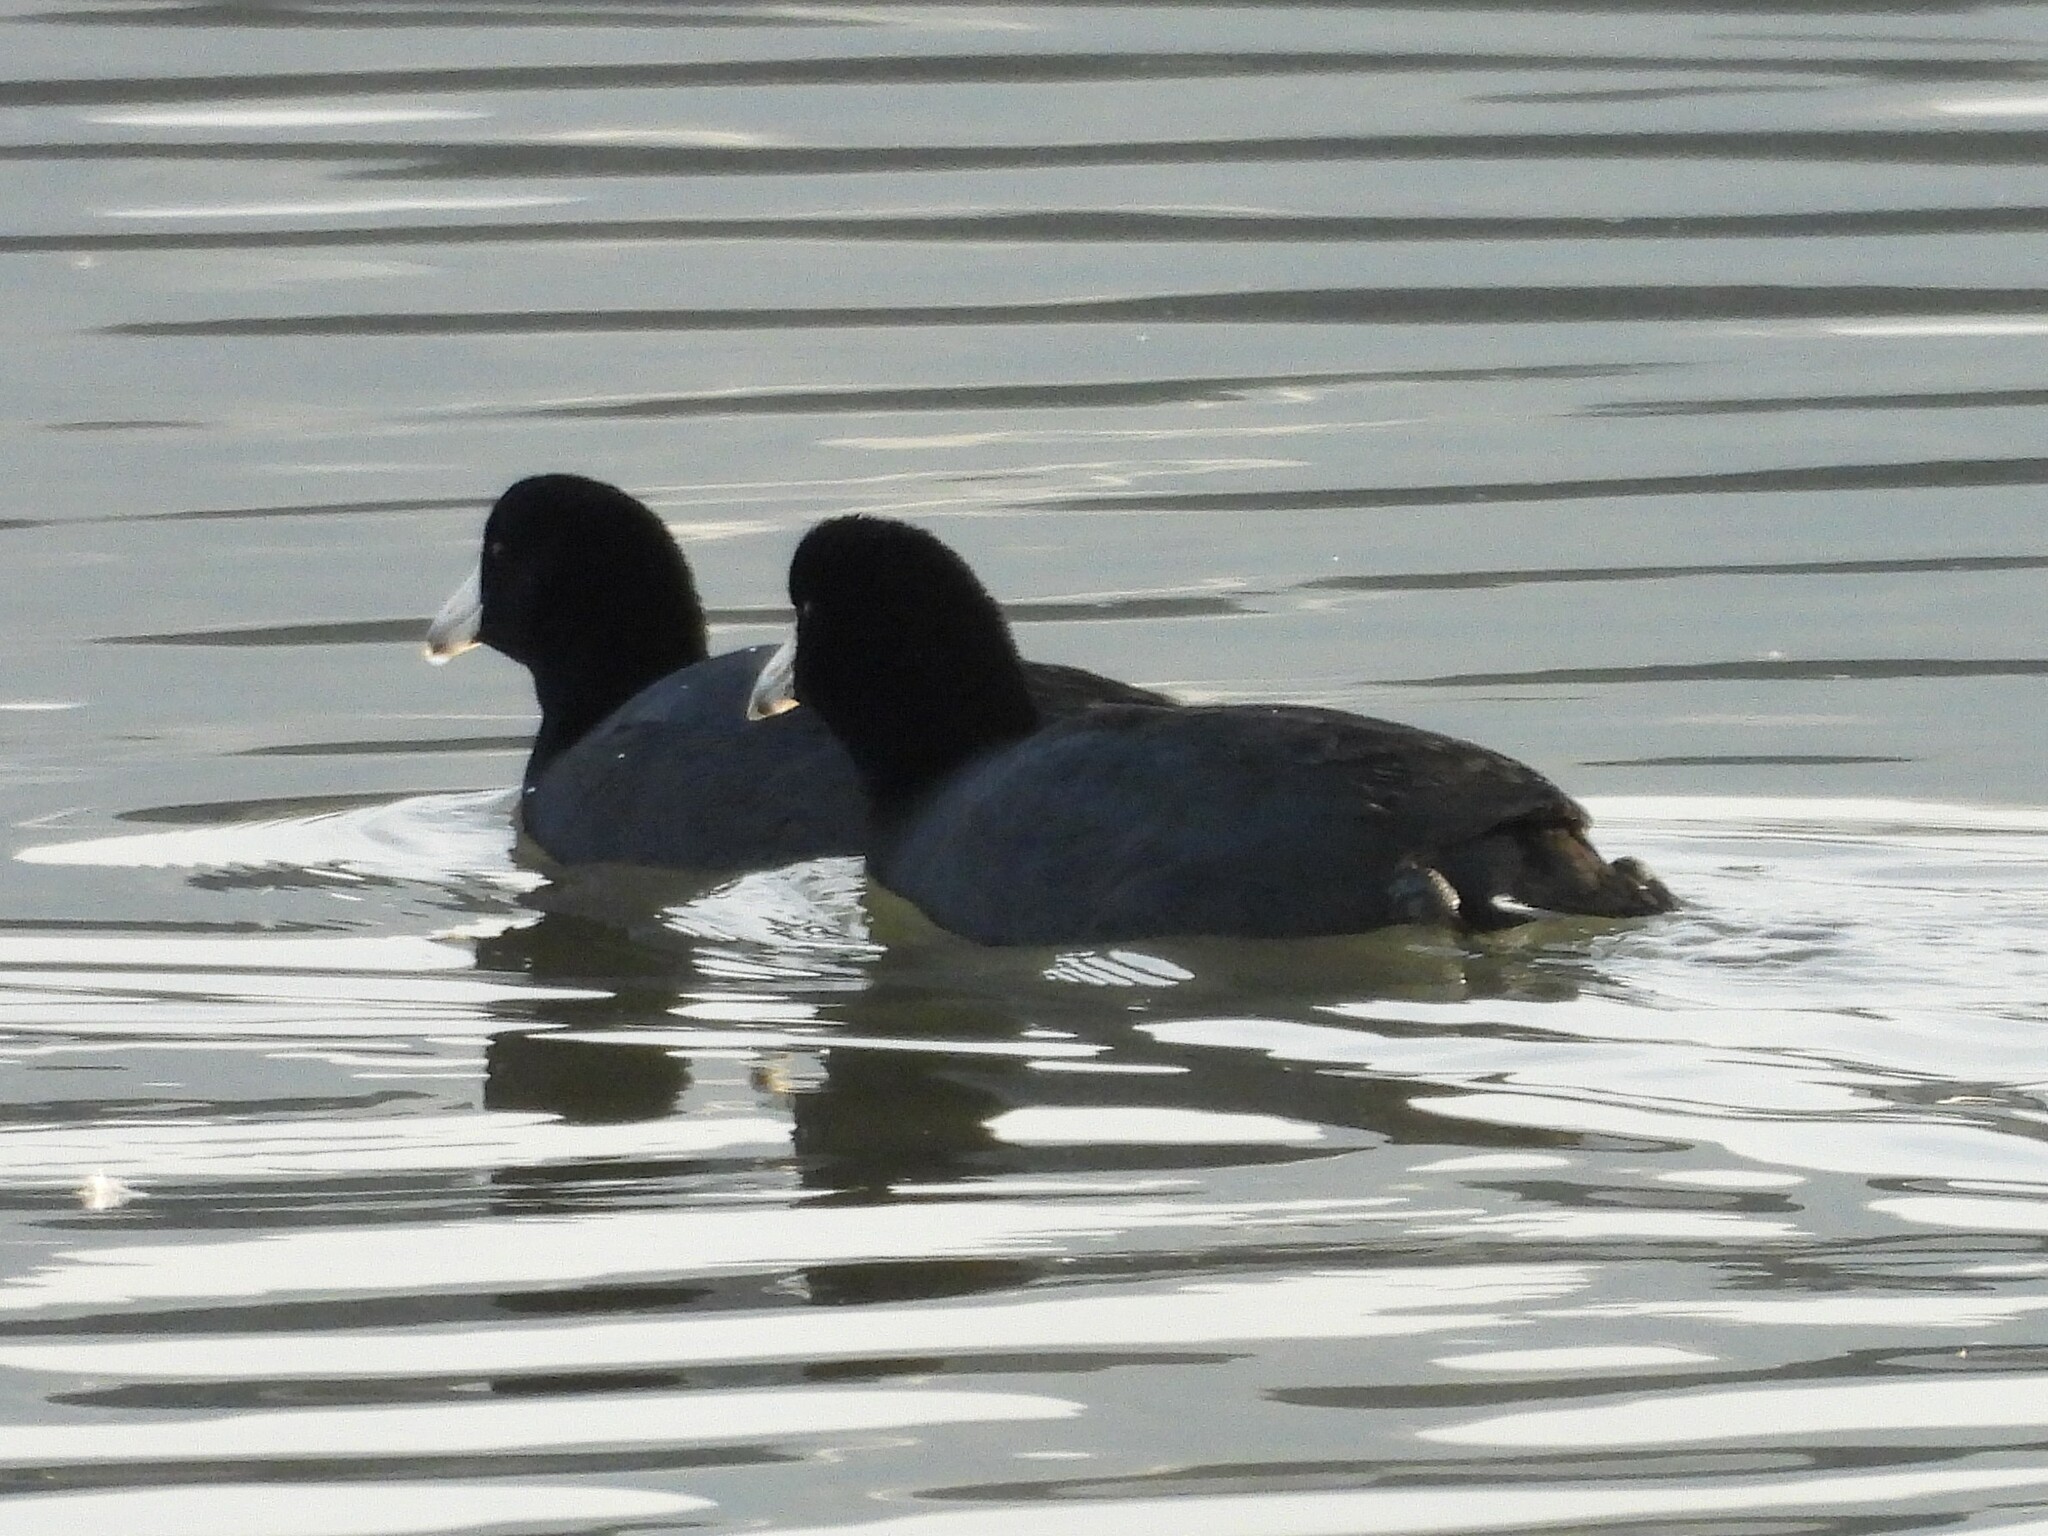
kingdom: Animalia
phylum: Chordata
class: Aves
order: Gruiformes
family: Rallidae
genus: Fulica
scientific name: Fulica americana
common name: American coot
